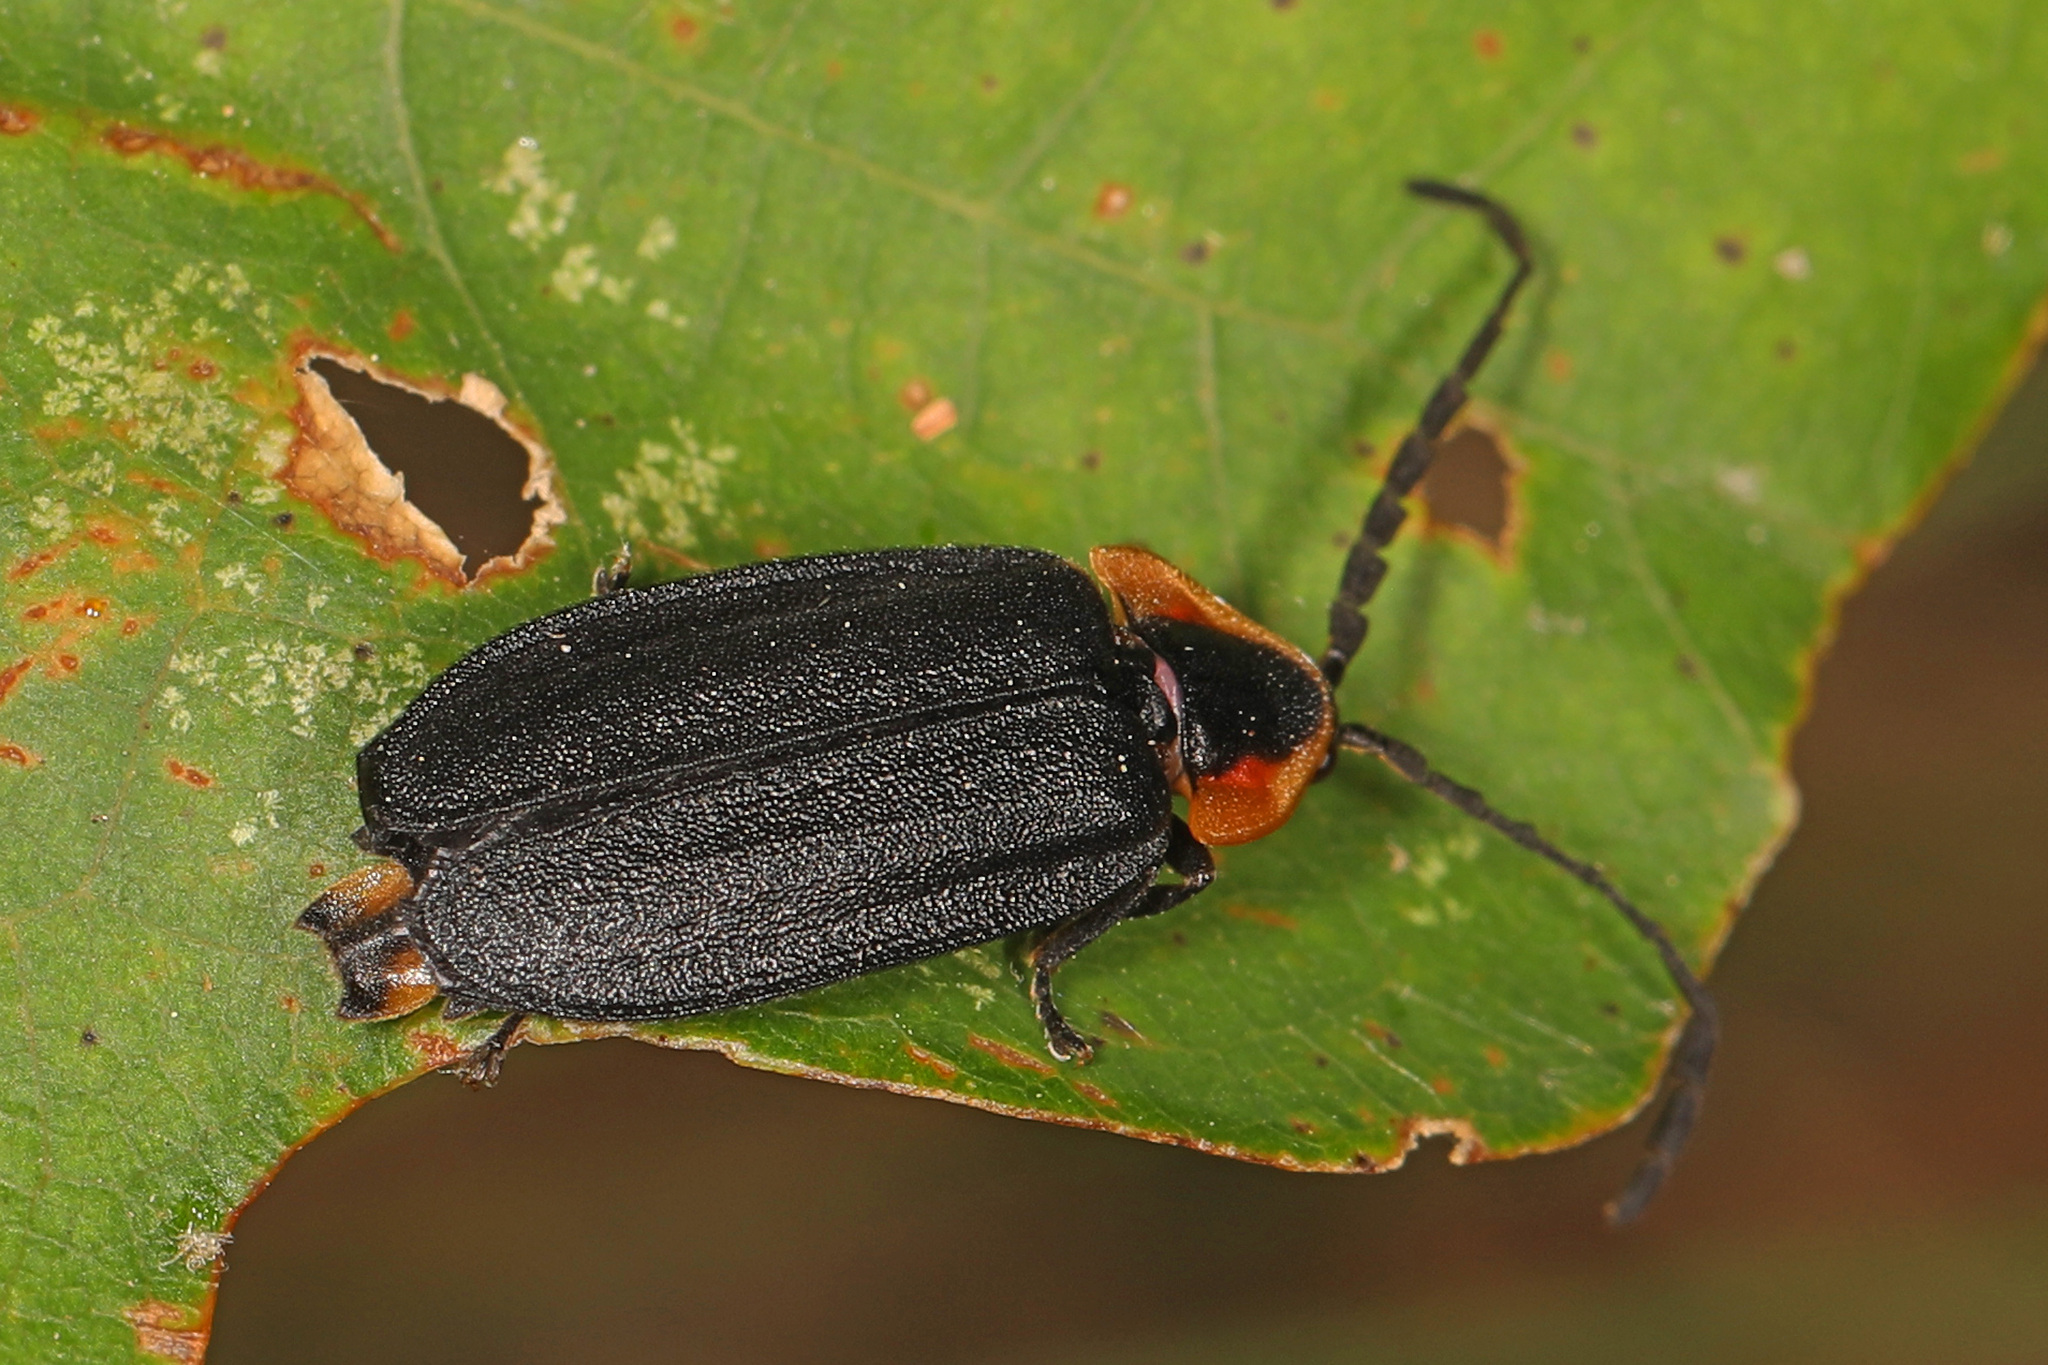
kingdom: Animalia
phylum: Arthropoda
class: Insecta
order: Coleoptera
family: Lampyridae
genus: Lucidota
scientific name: Lucidota atra
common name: Black firefly
